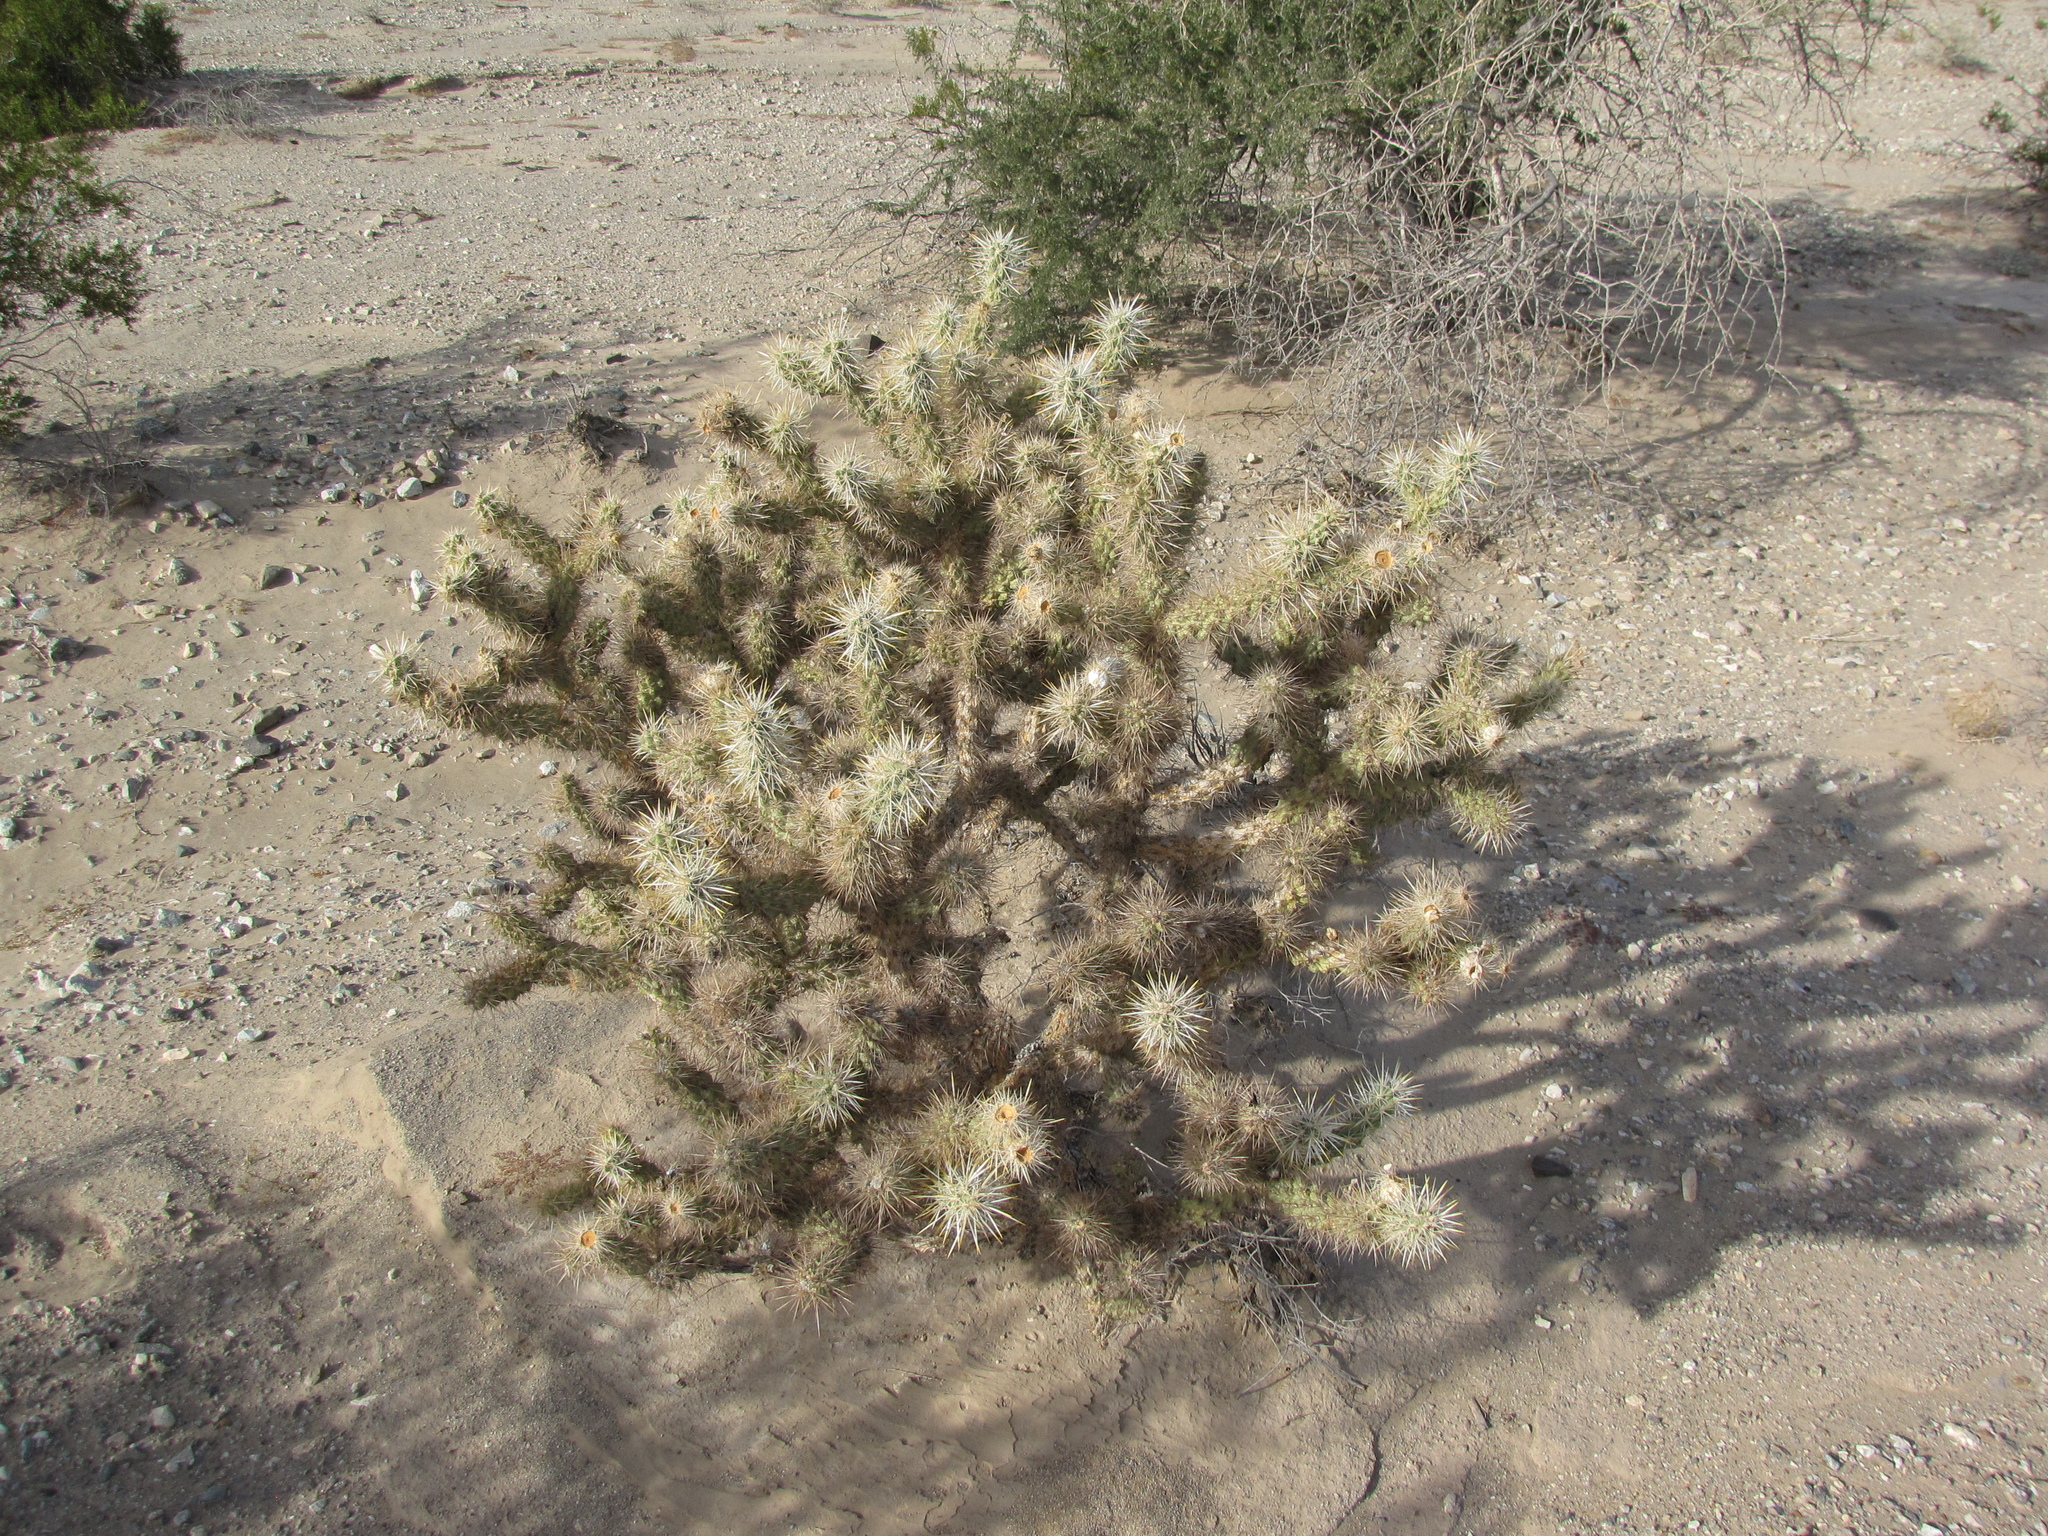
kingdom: Plantae
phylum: Tracheophyta
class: Magnoliopsida
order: Caryophyllales
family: Cactaceae
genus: Cylindropuntia
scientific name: Cylindropuntia acanthocarpa
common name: Buckhorn cholla
